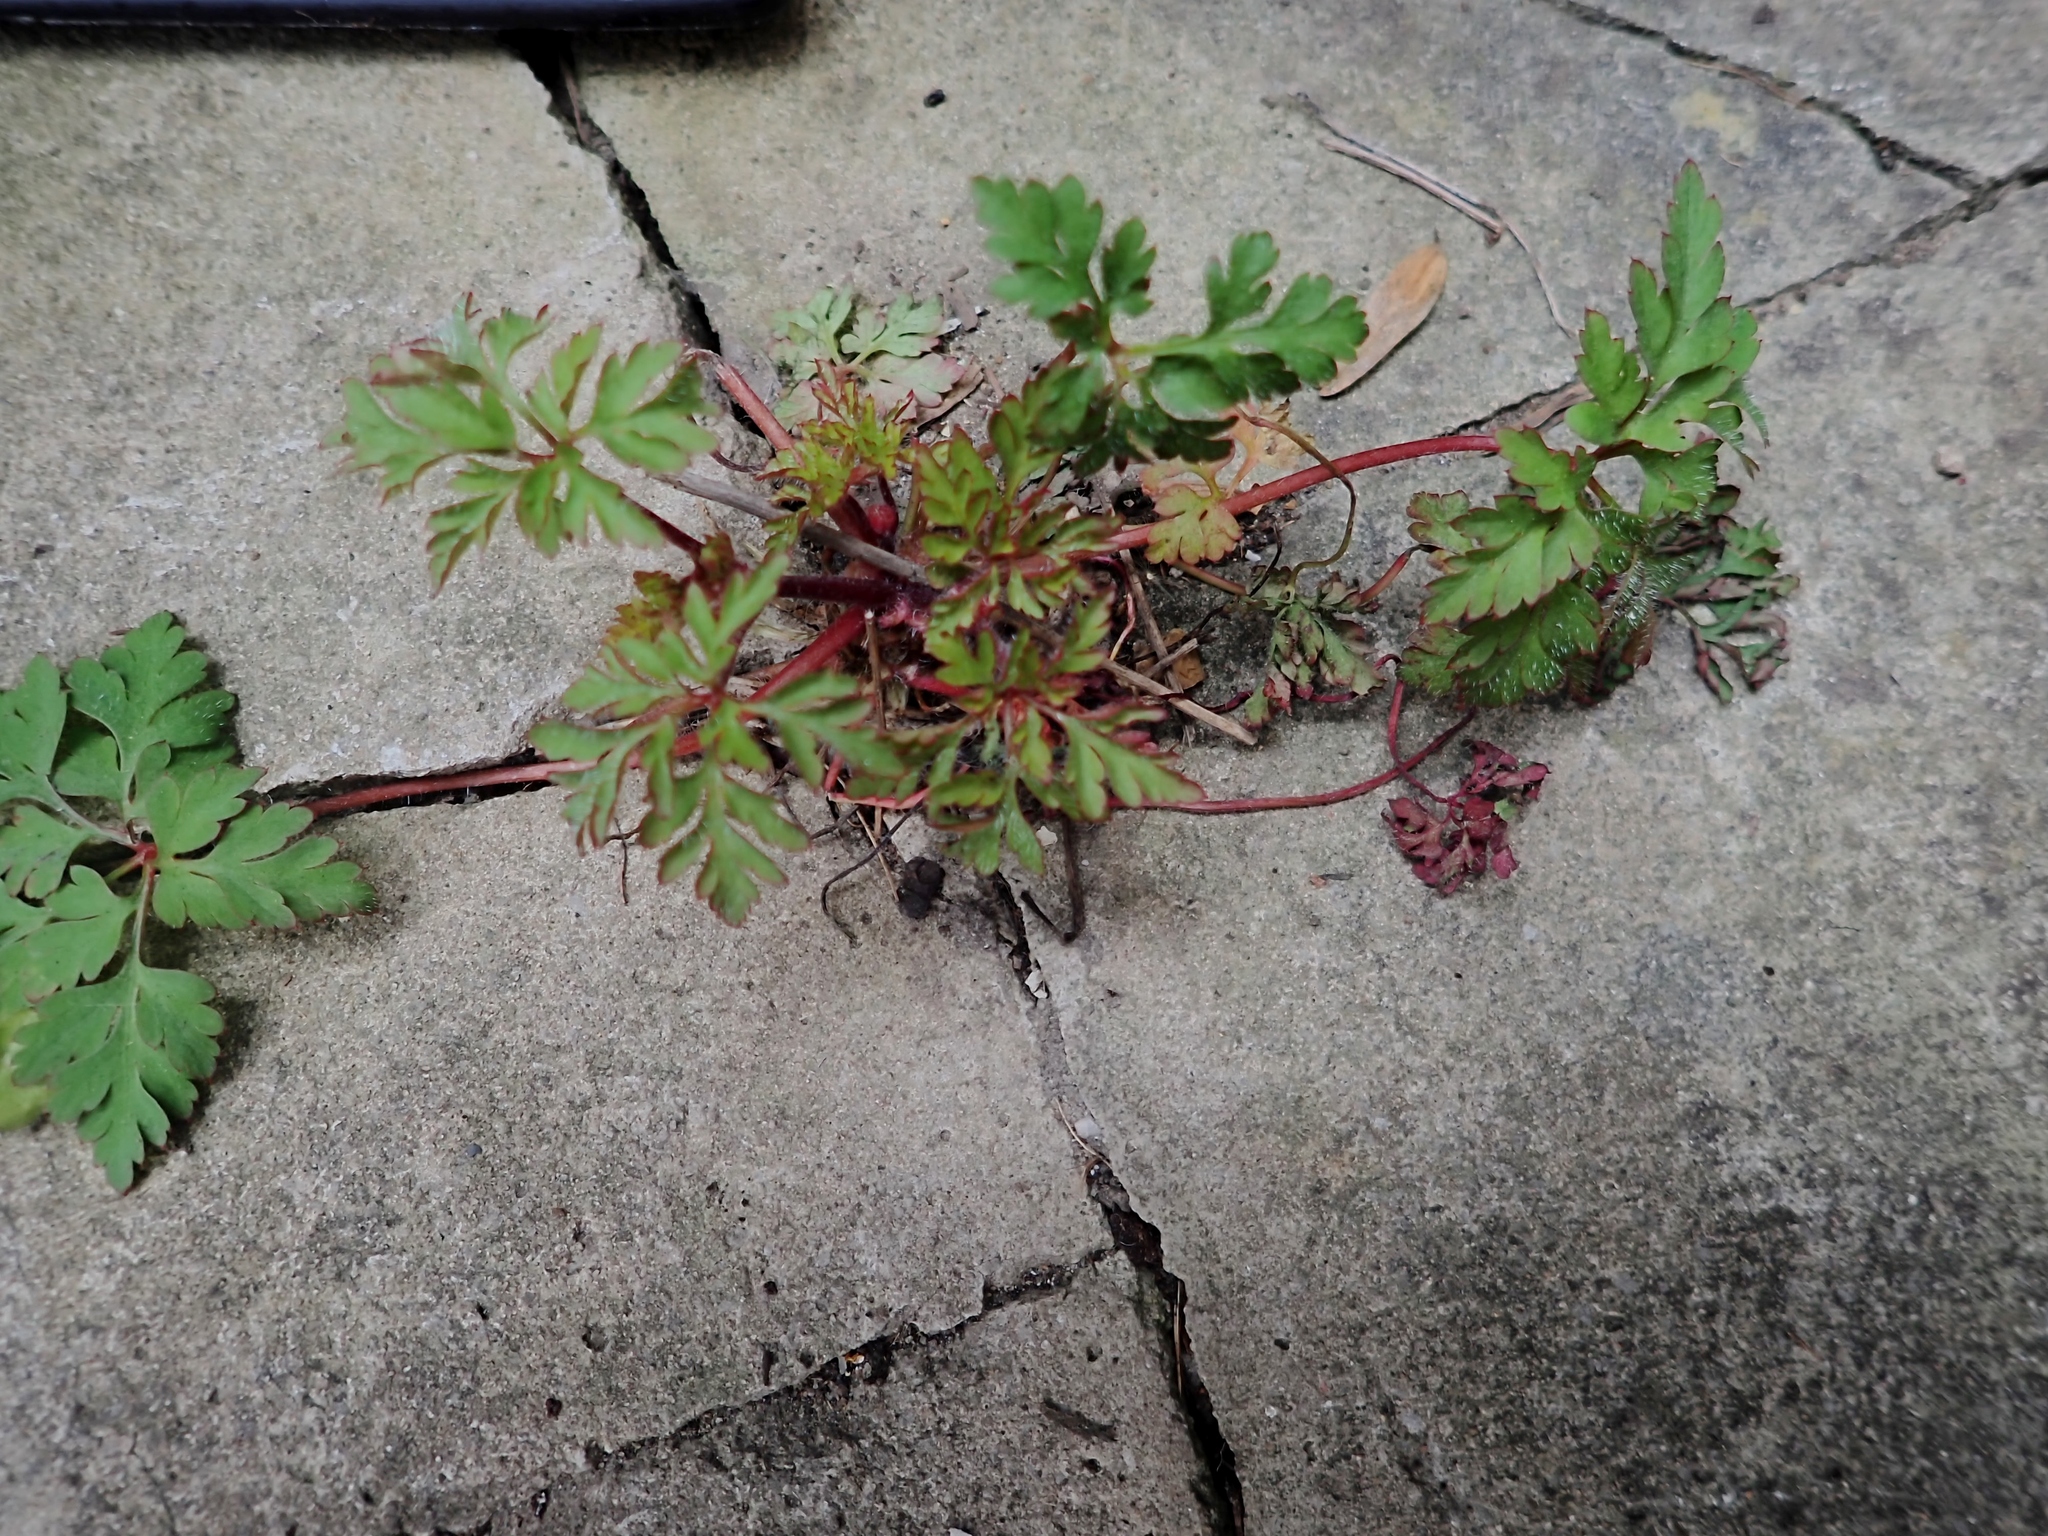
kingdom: Plantae
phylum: Tracheophyta
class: Magnoliopsida
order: Geraniales
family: Geraniaceae
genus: Geranium
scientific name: Geranium robertianum
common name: Herb-robert
